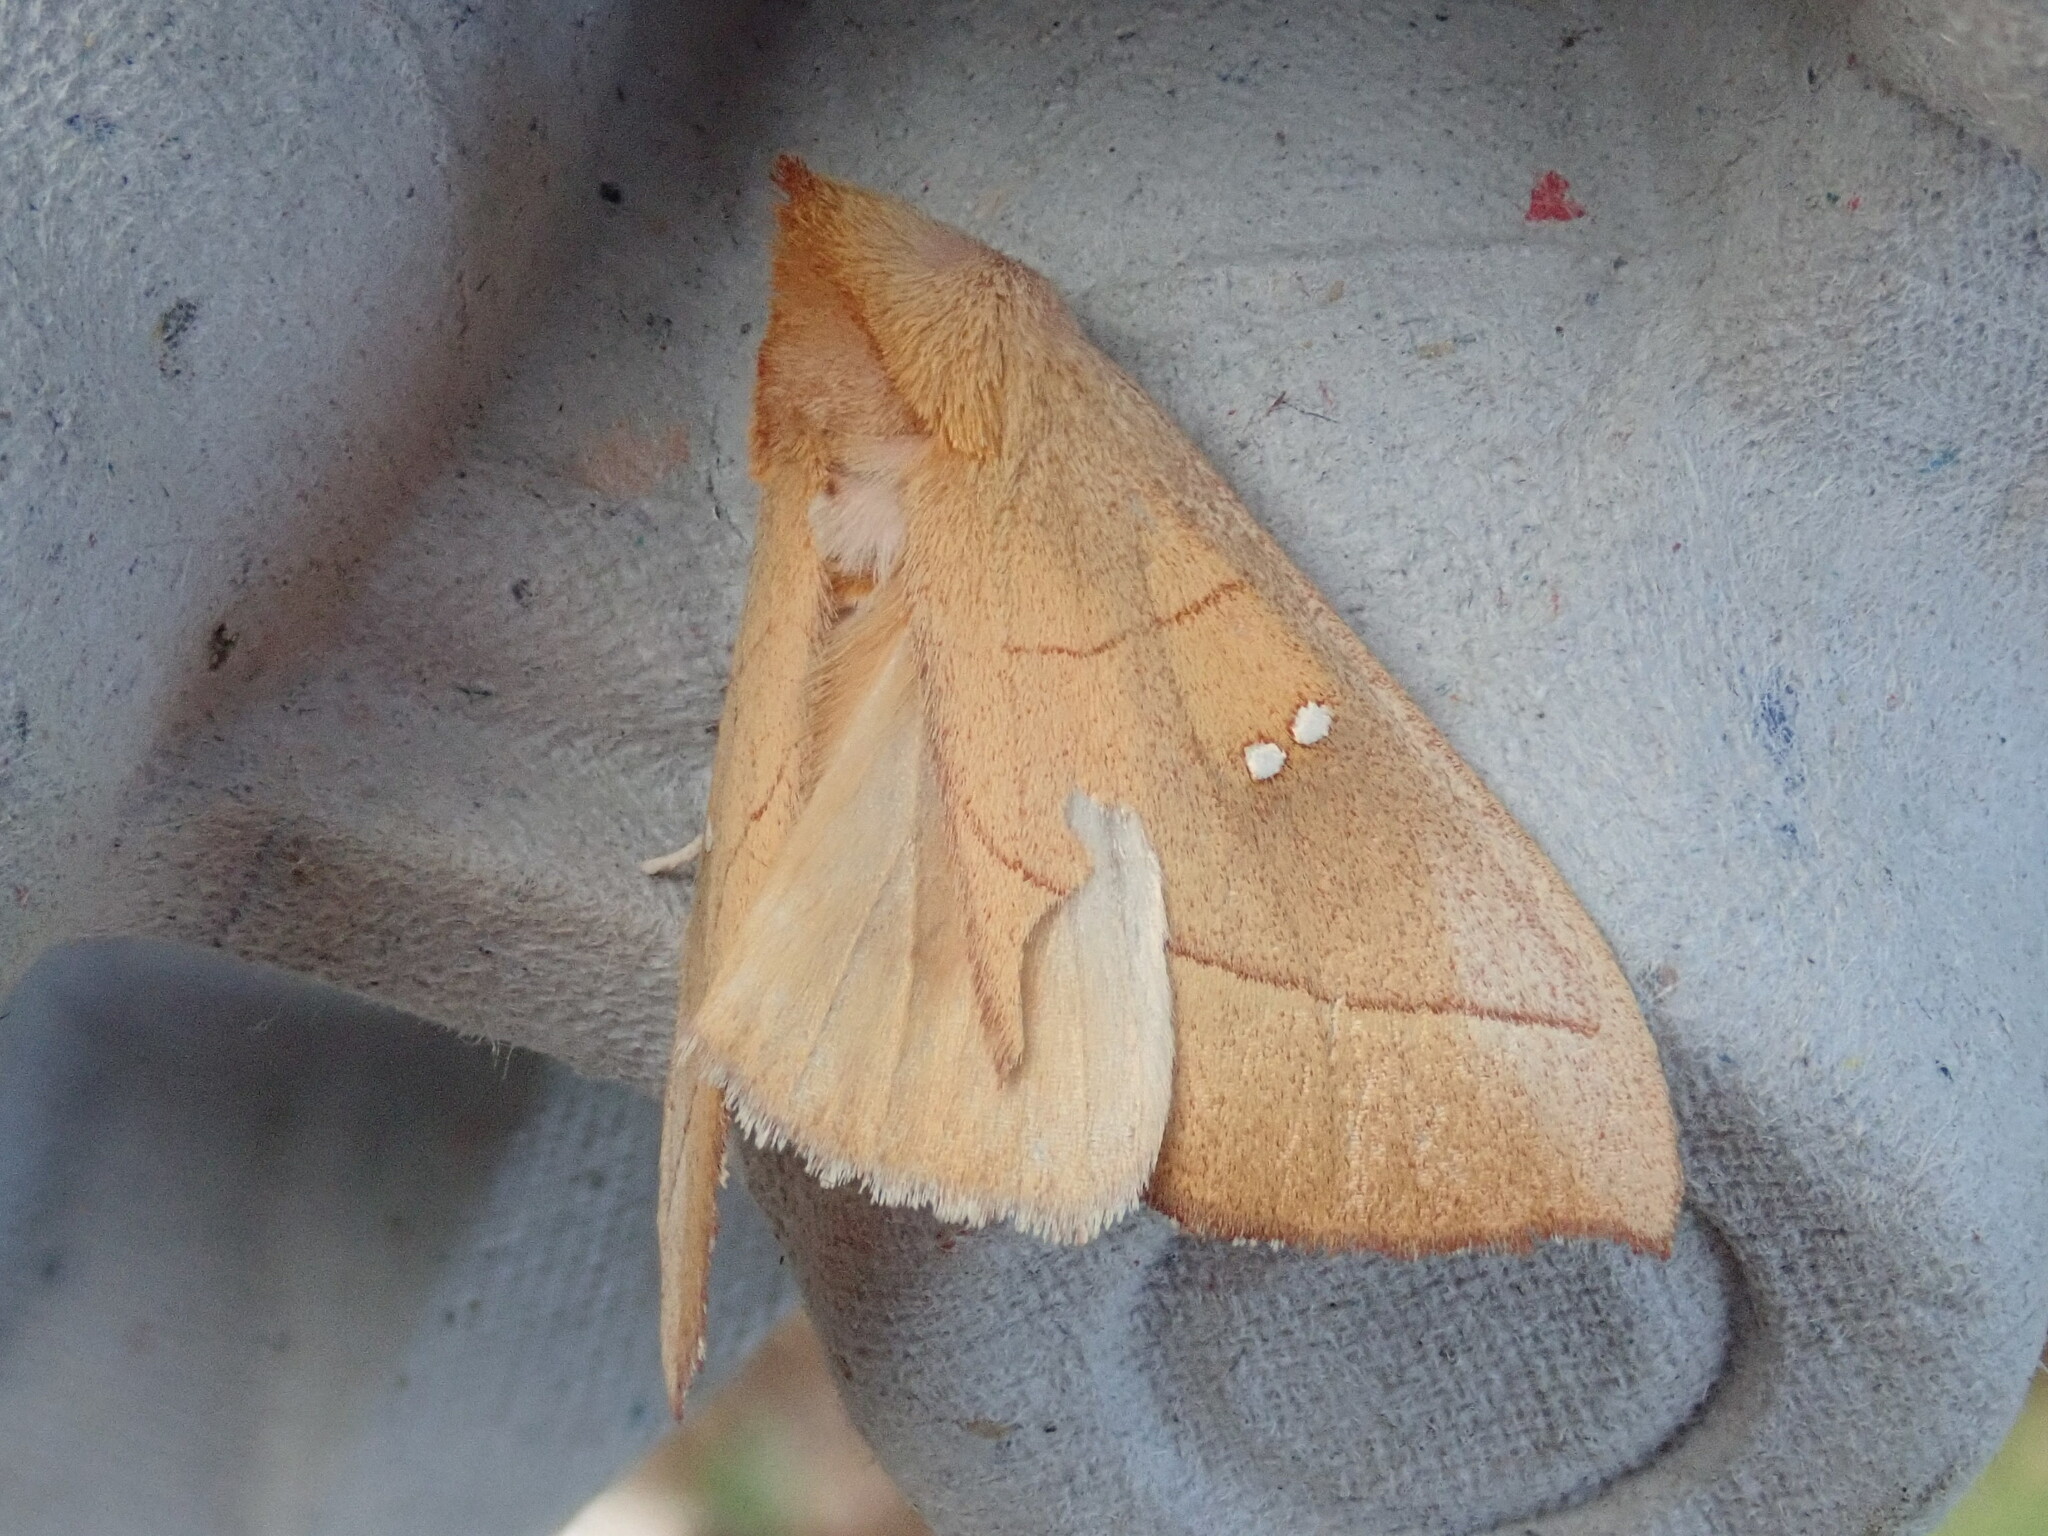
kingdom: Animalia
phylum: Arthropoda
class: Insecta
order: Lepidoptera
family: Notodontidae
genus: Nadata
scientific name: Nadata gibbosa
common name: White-dotted prominent
